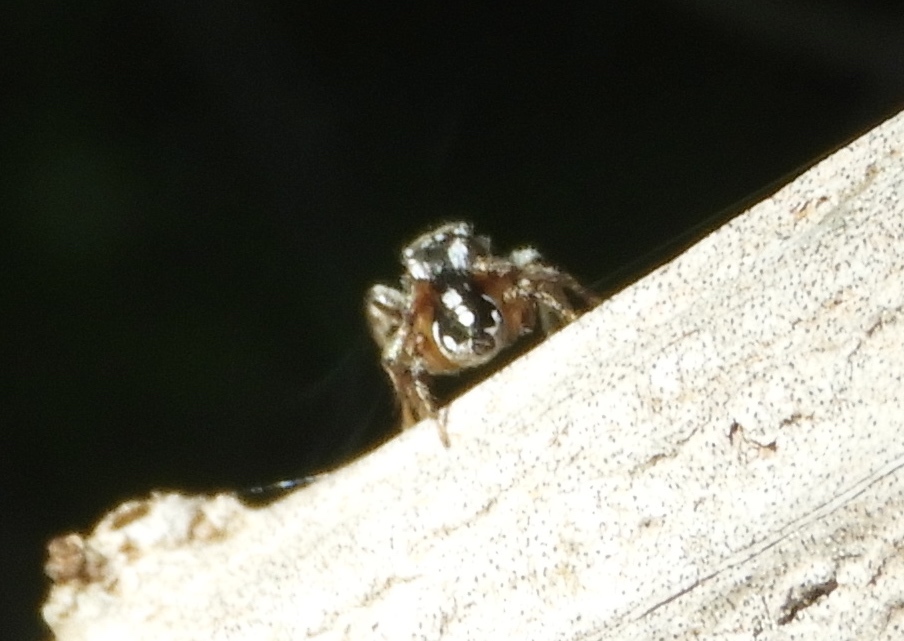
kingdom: Animalia
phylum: Arthropoda
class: Arachnida
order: Araneae
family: Salticidae
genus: Habronattus
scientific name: Habronattus contingens
